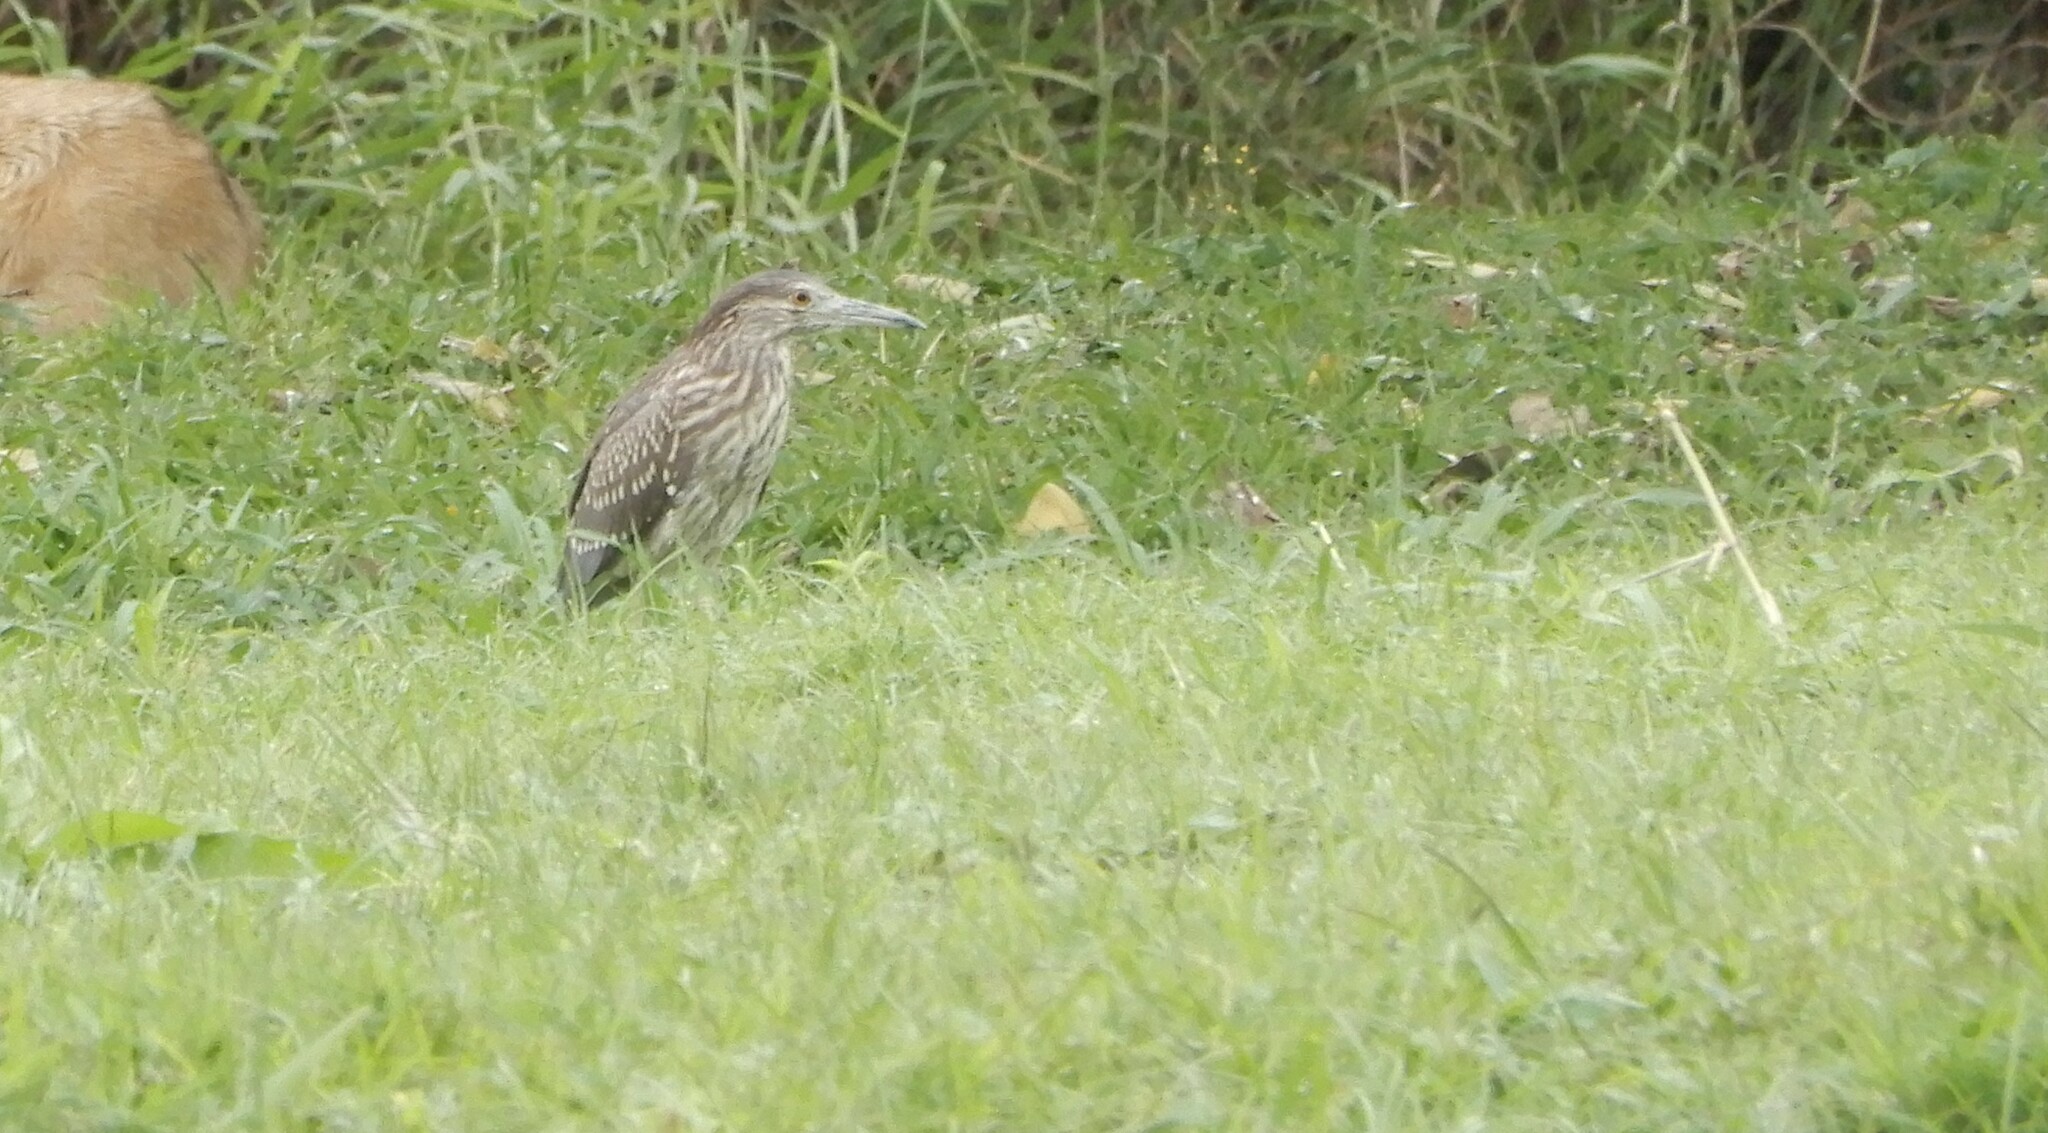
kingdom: Animalia
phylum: Chordata
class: Aves
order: Pelecaniformes
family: Ardeidae
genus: Nycticorax
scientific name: Nycticorax nycticorax
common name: Black-crowned night heron
